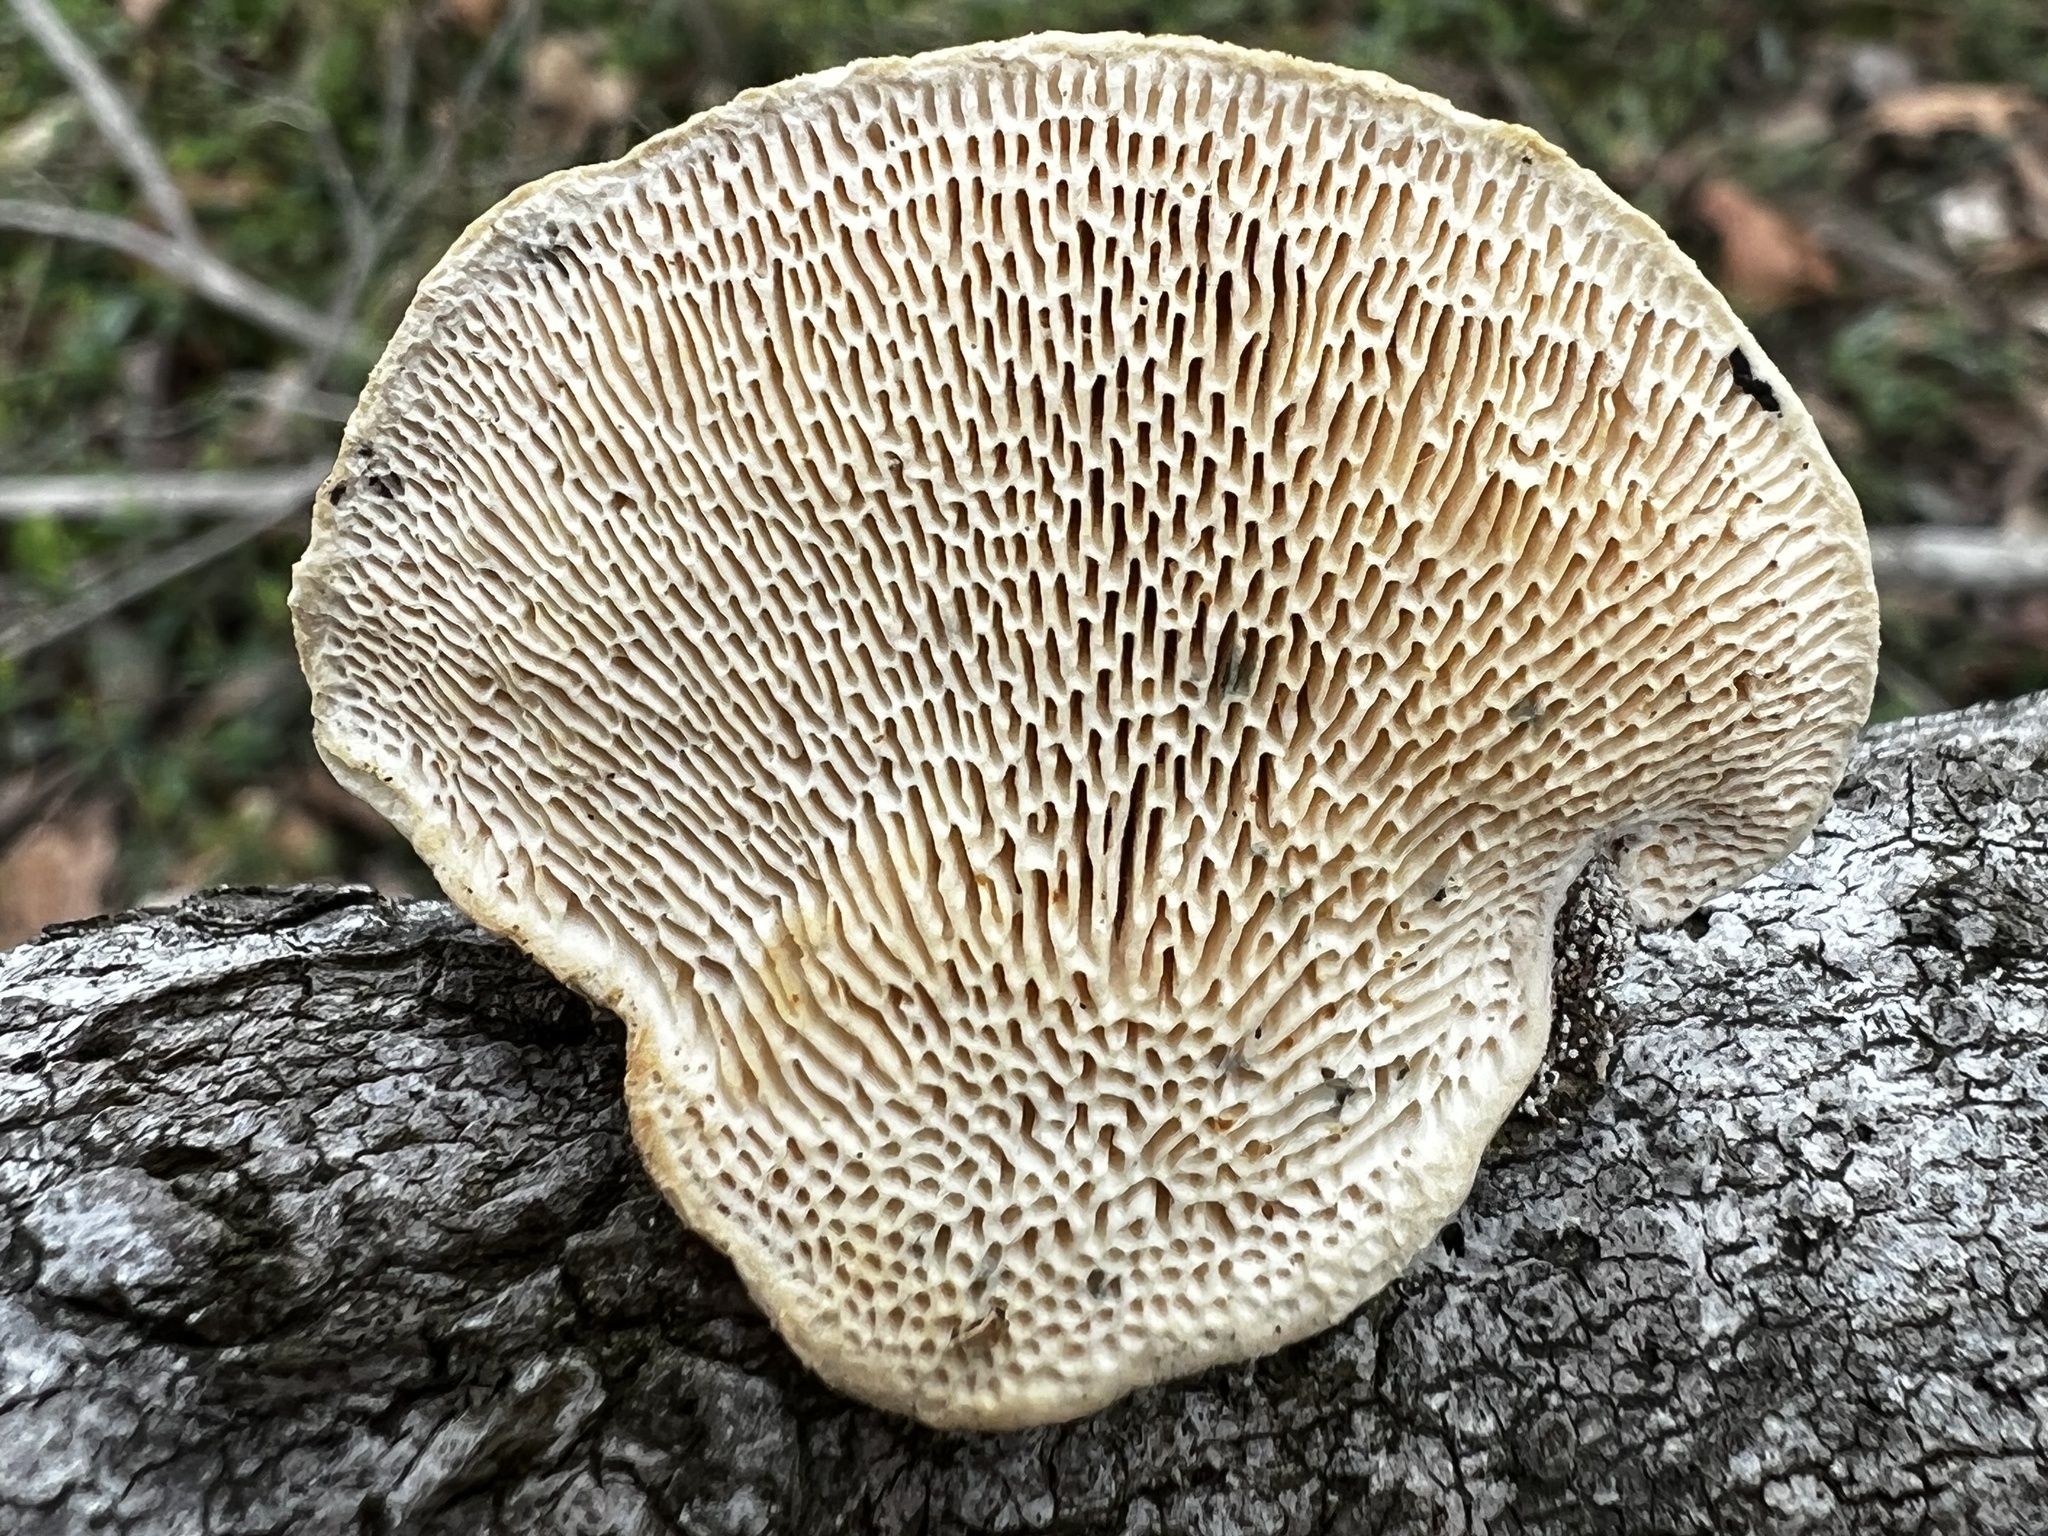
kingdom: Fungi
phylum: Basidiomycota
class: Agaricomycetes
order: Polyporales
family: Polyporaceae
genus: Trametes
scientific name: Trametes gibbosa
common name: Lumpy bracket
